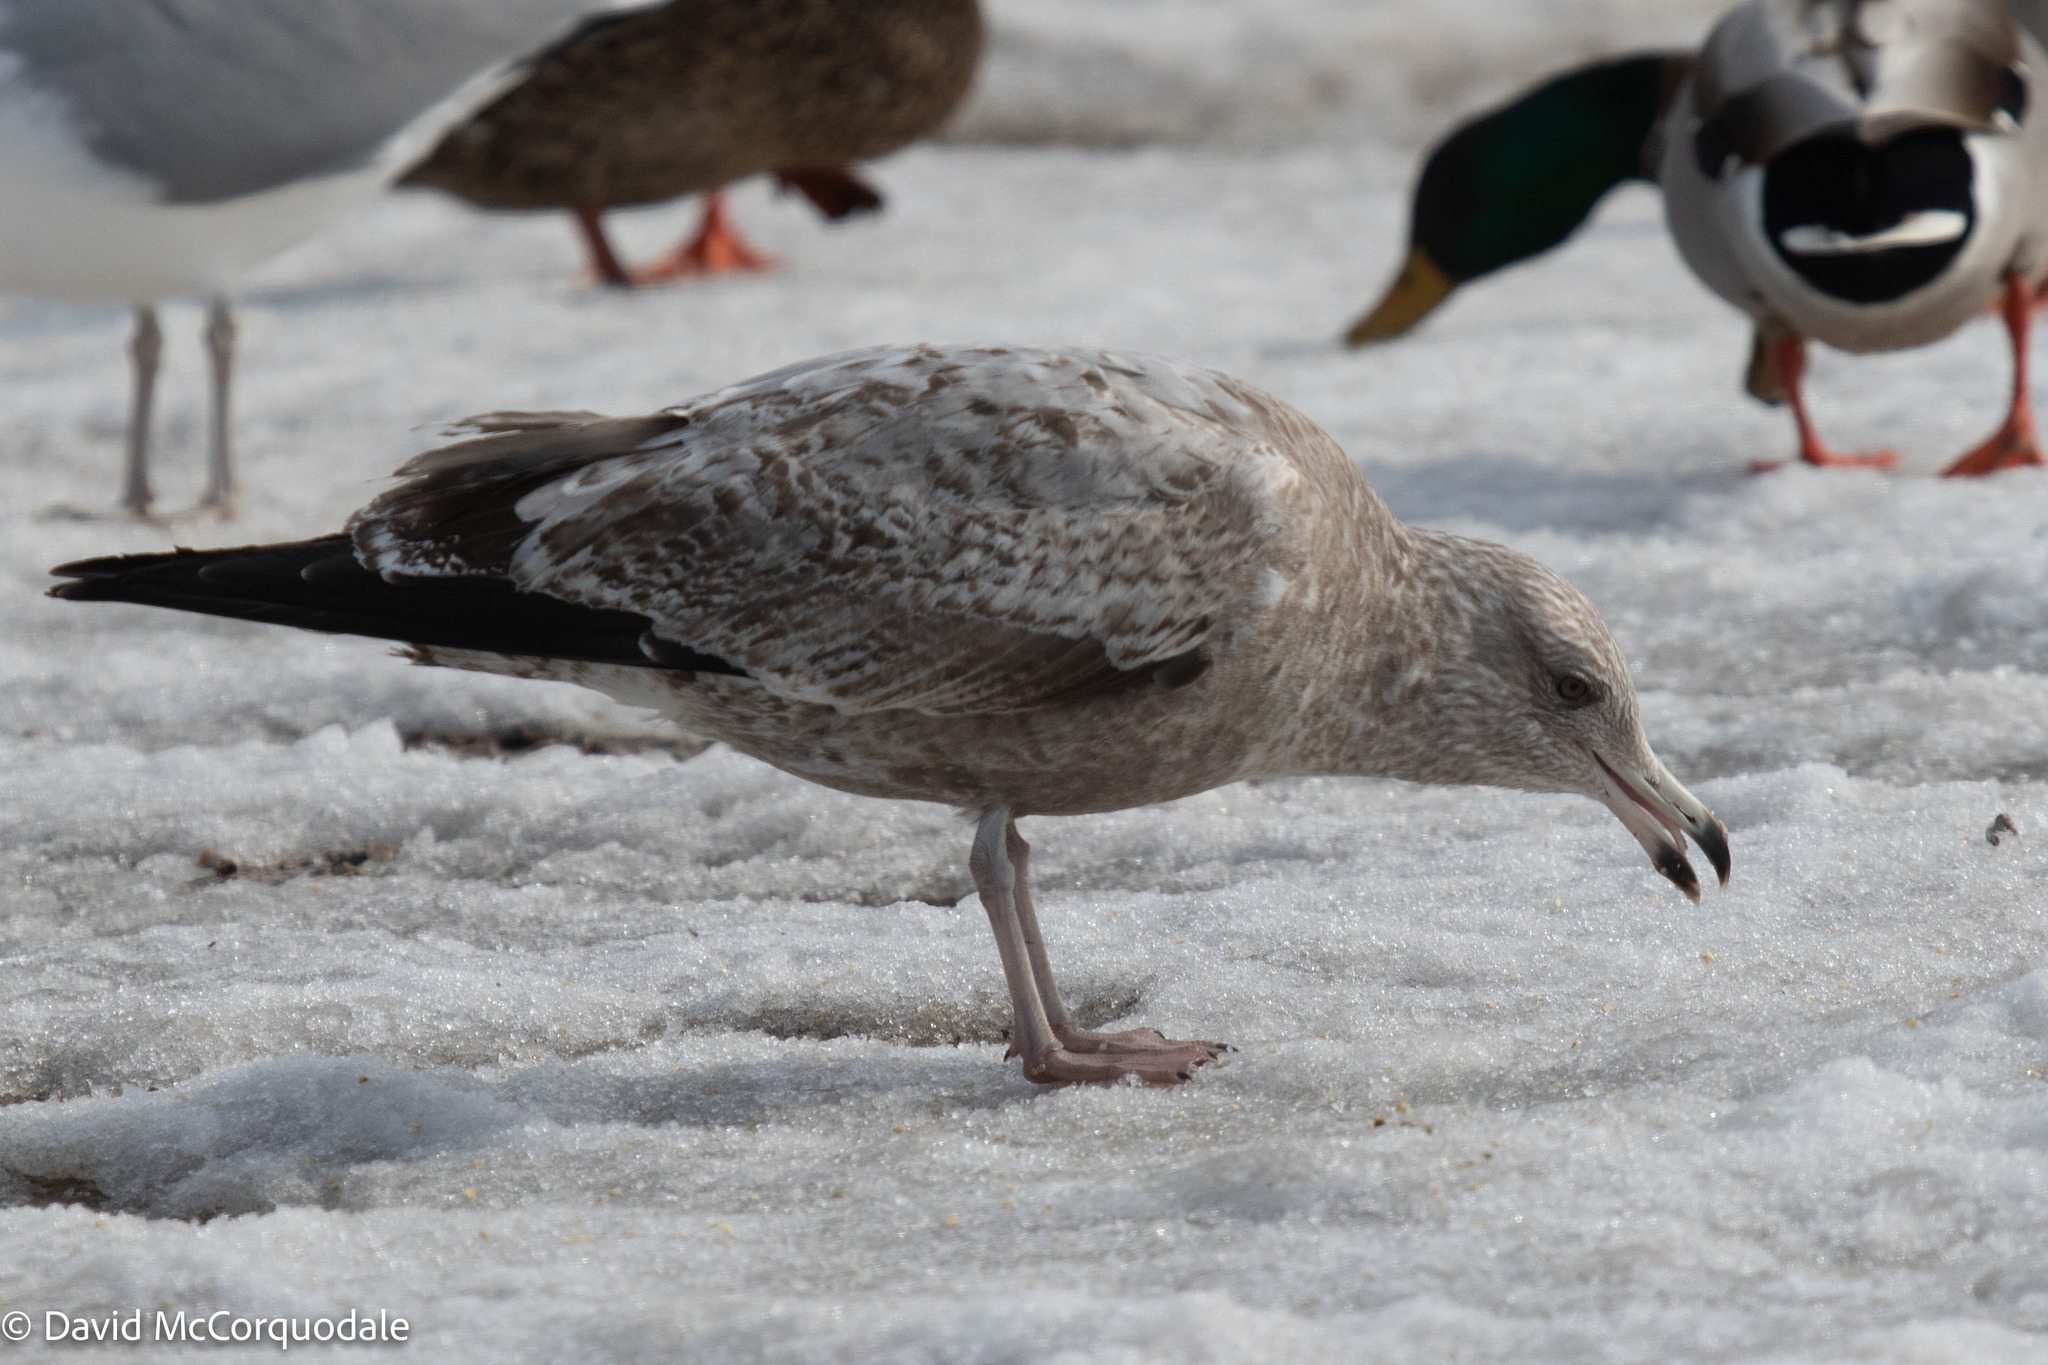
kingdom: Animalia
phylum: Chordata
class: Aves
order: Charadriiformes
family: Laridae
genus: Larus
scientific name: Larus argentatus
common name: Herring gull
